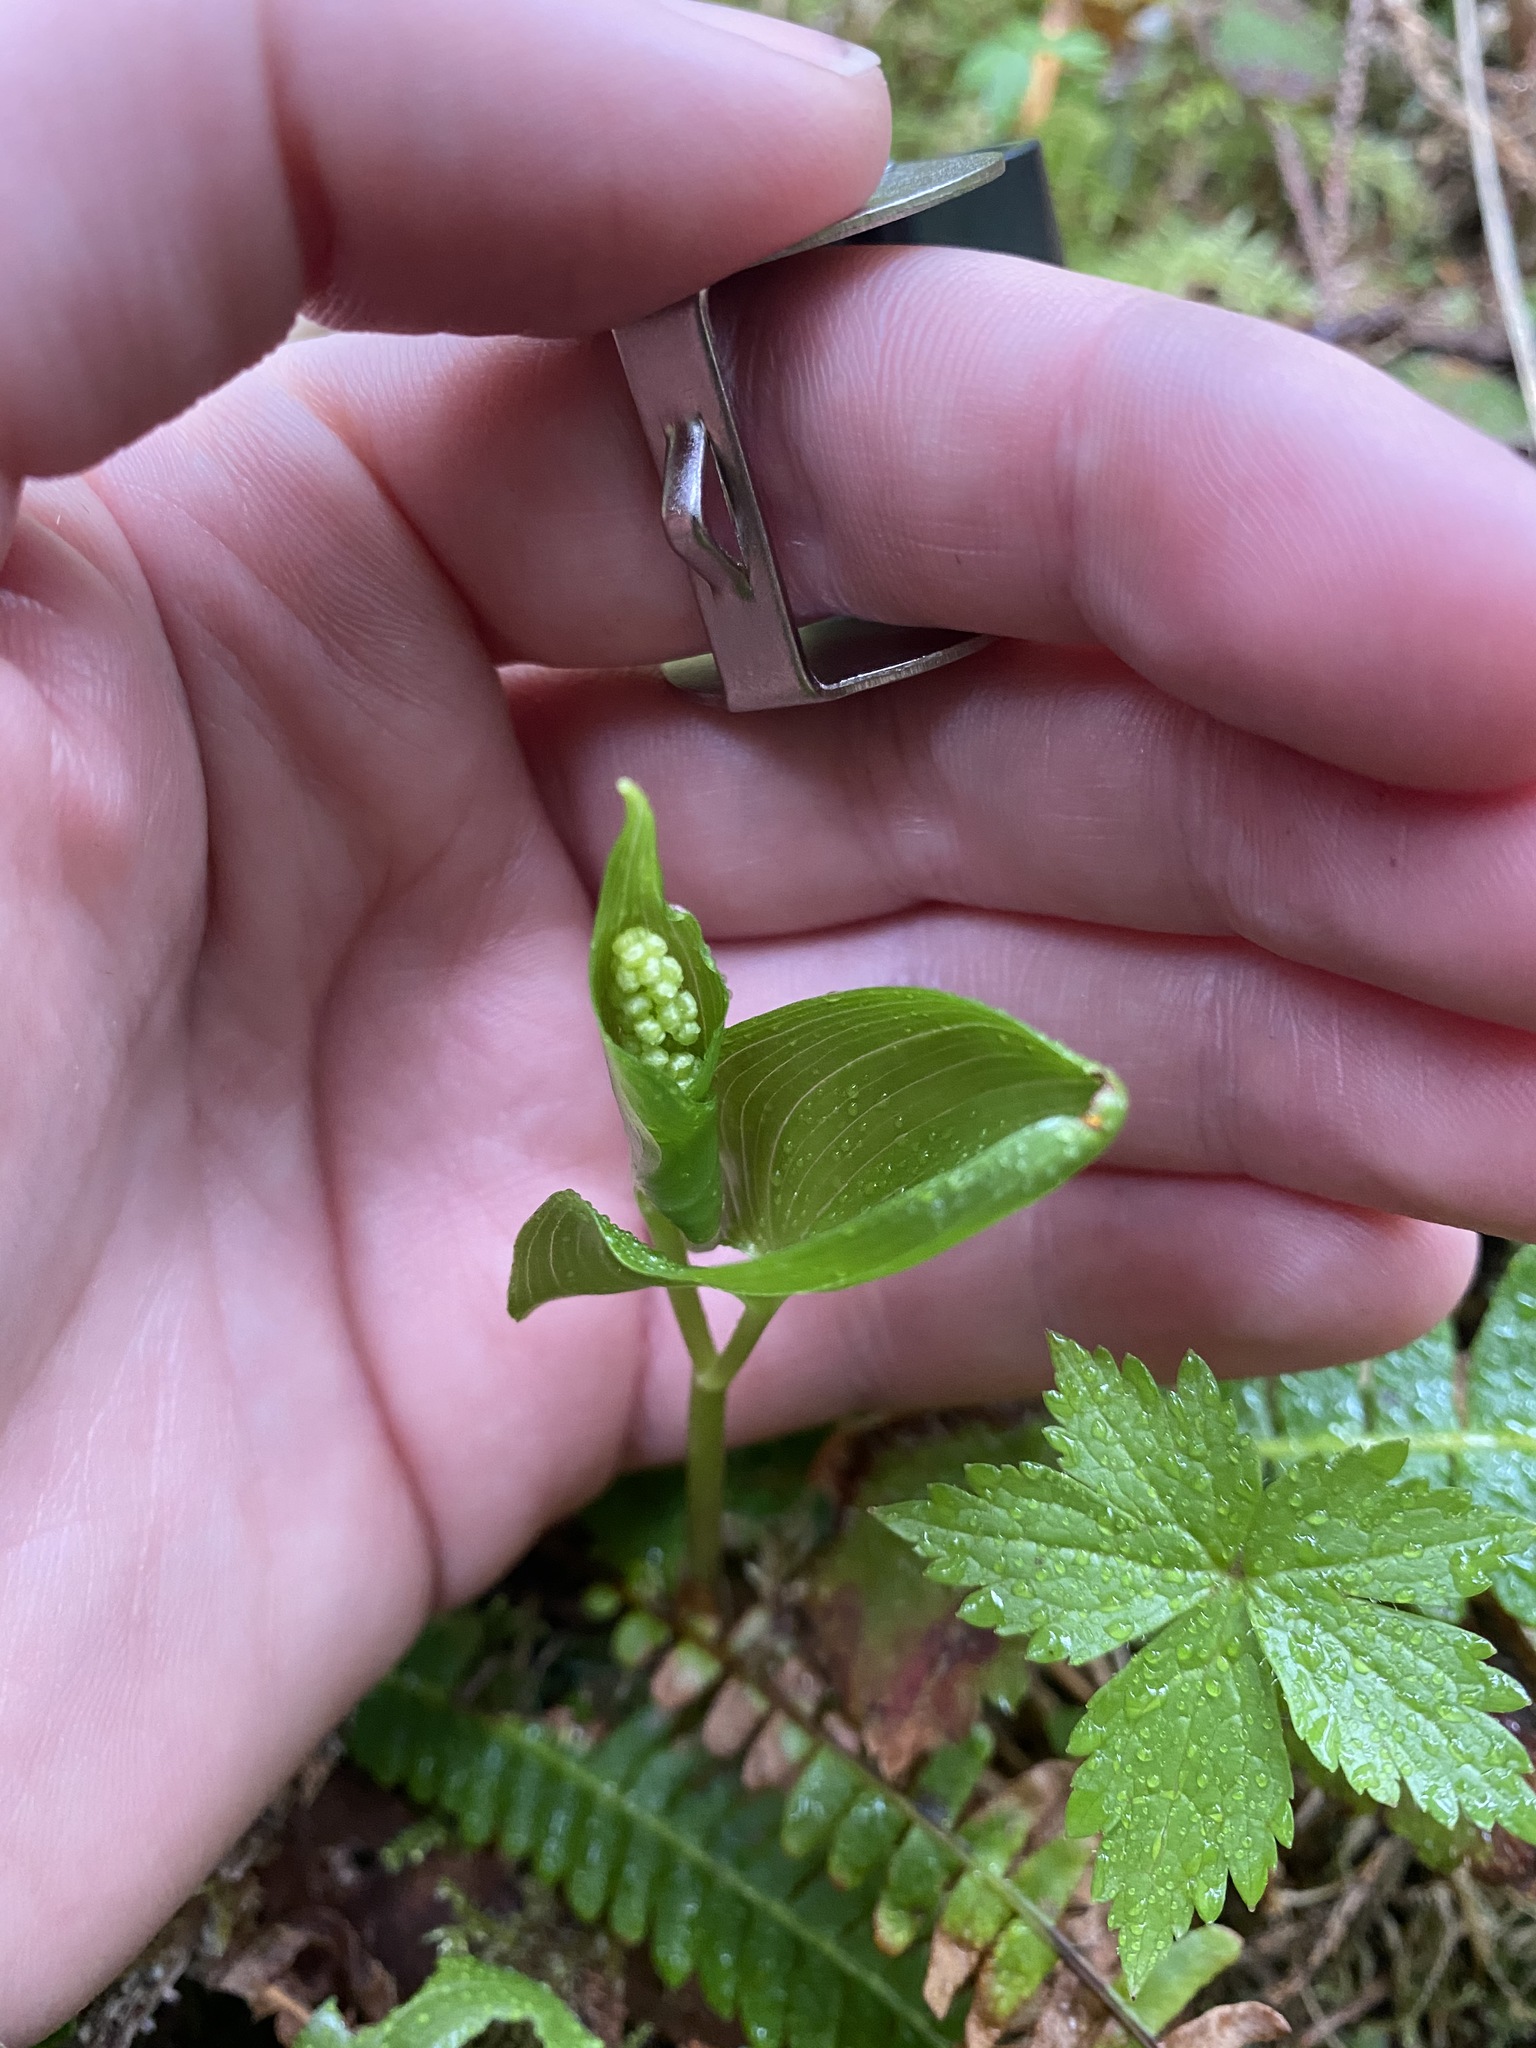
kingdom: Plantae
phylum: Tracheophyta
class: Liliopsida
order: Asparagales
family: Asparagaceae
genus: Maianthemum
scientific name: Maianthemum dilatatum
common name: False lily-of-the-valley
